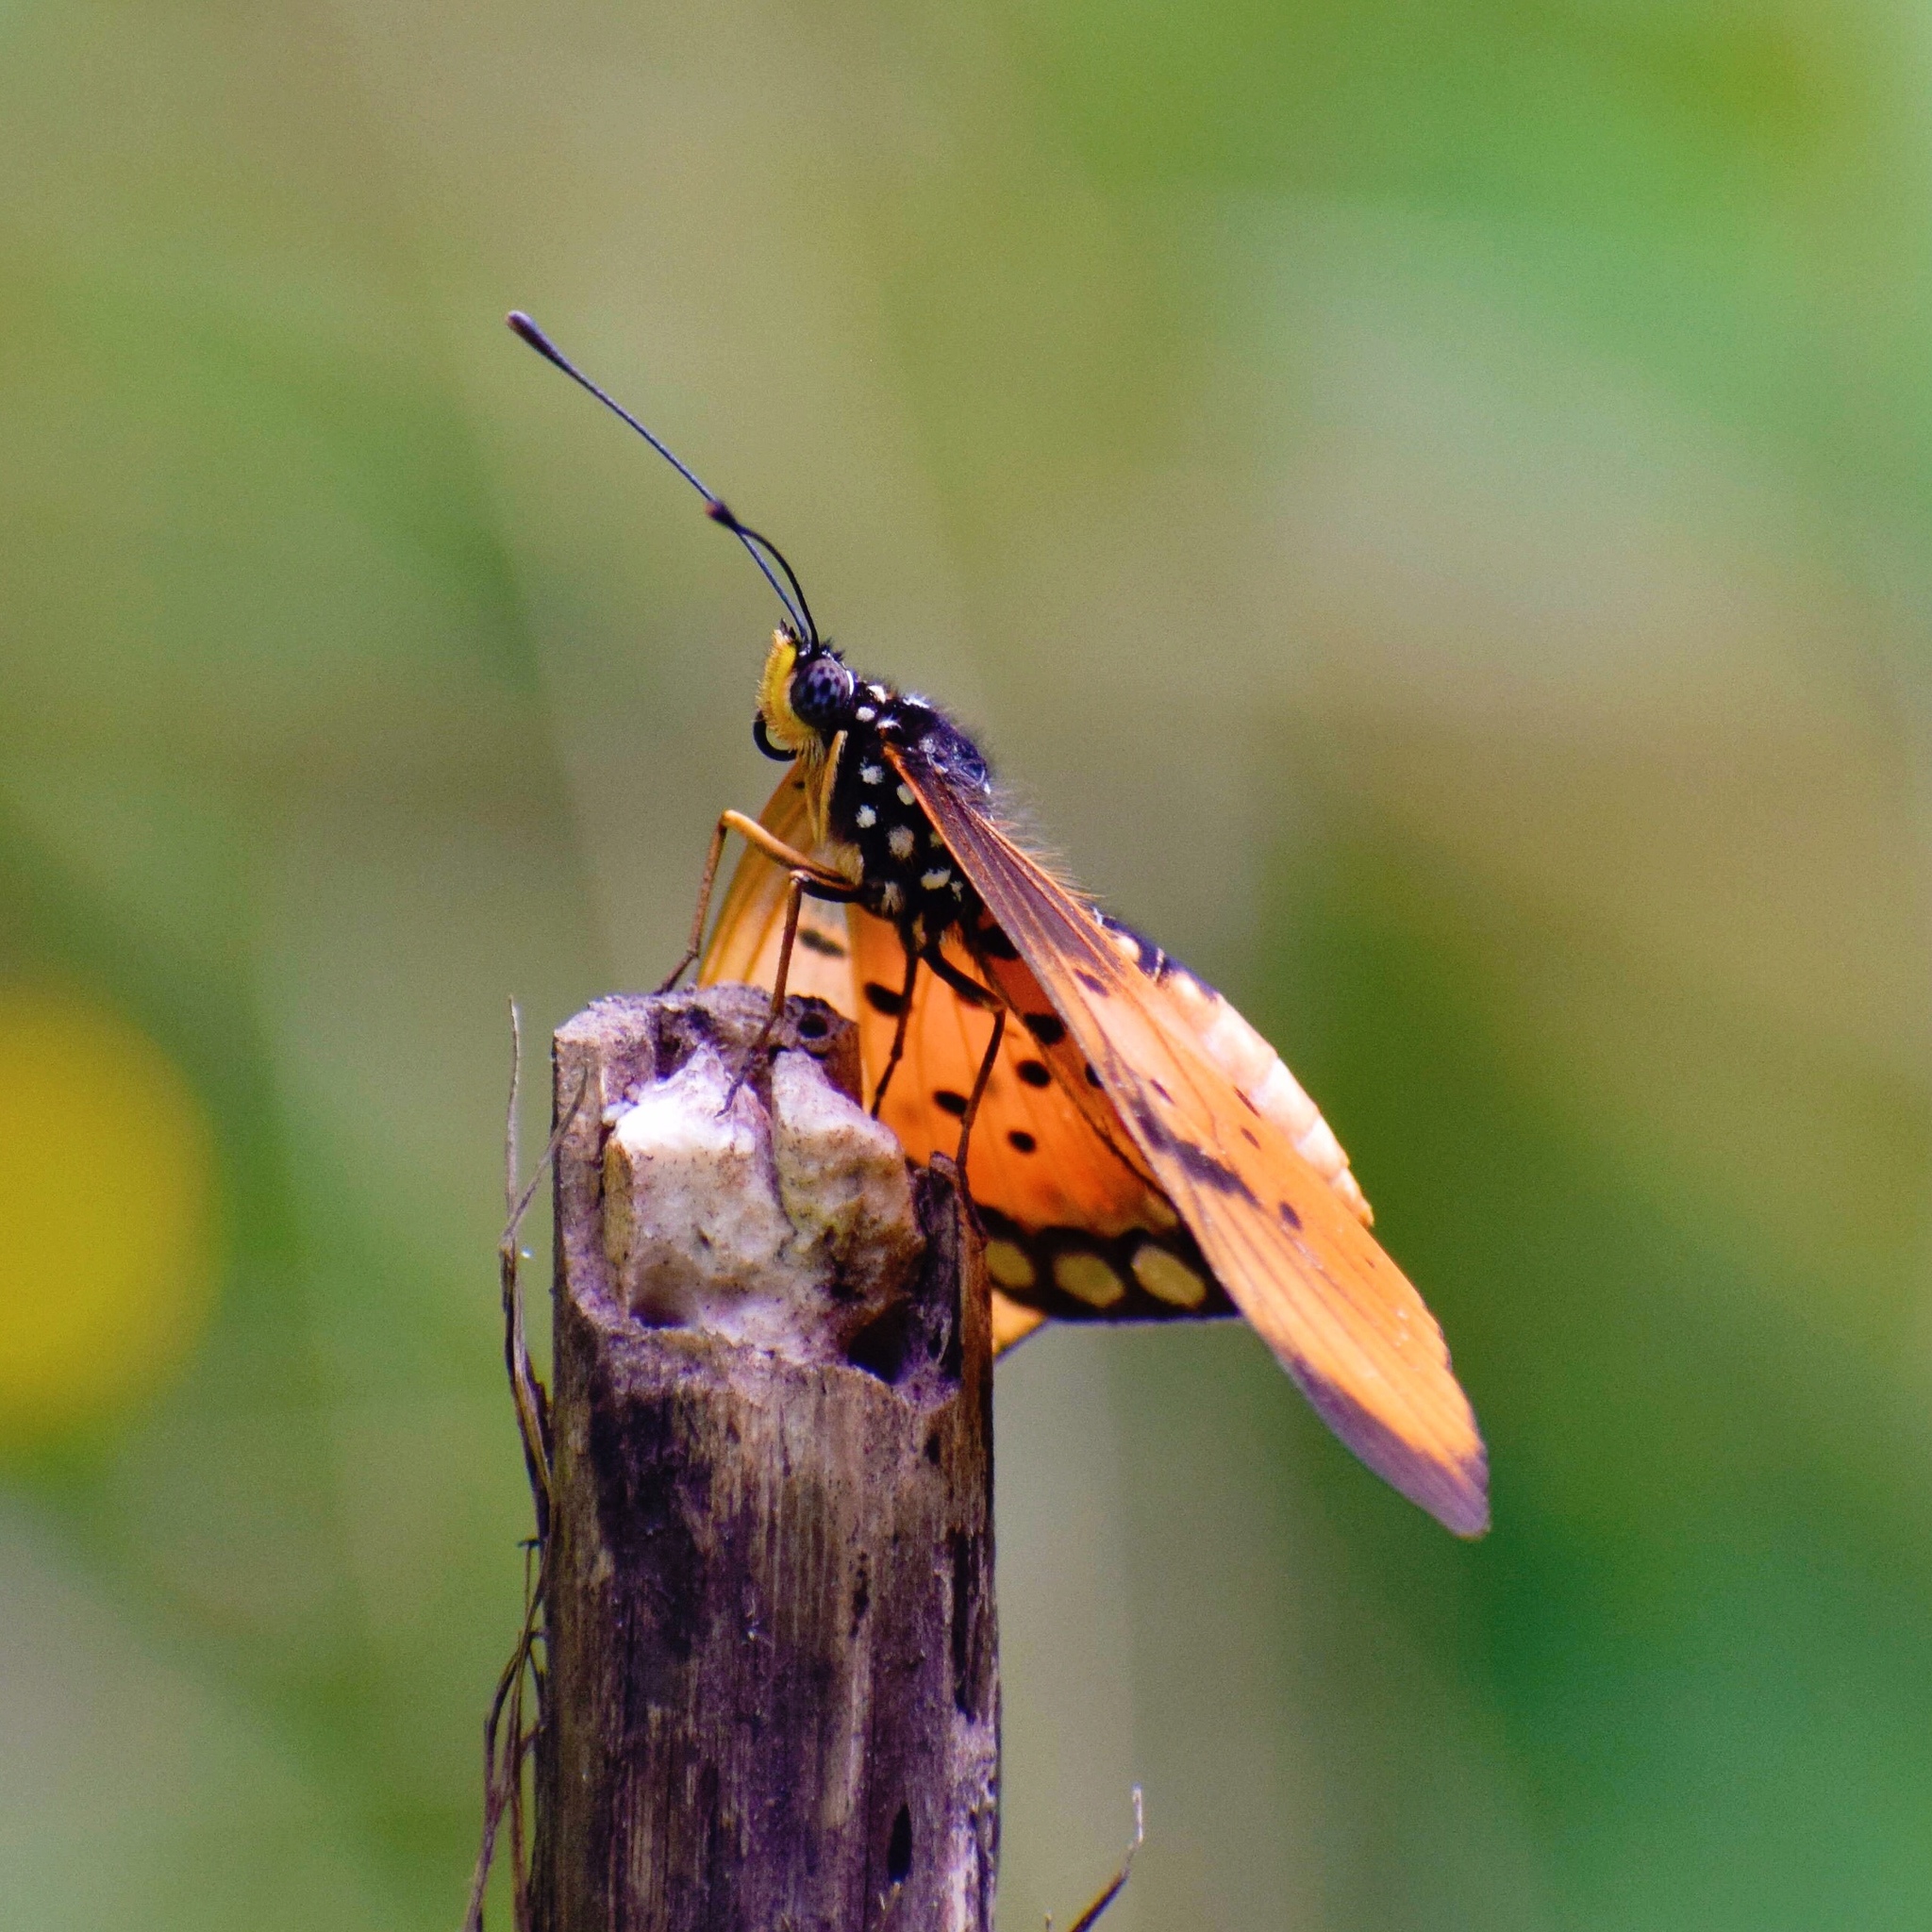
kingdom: Animalia
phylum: Arthropoda
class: Insecta
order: Lepidoptera
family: Nymphalidae
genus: Stephenia
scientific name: Stephenia
